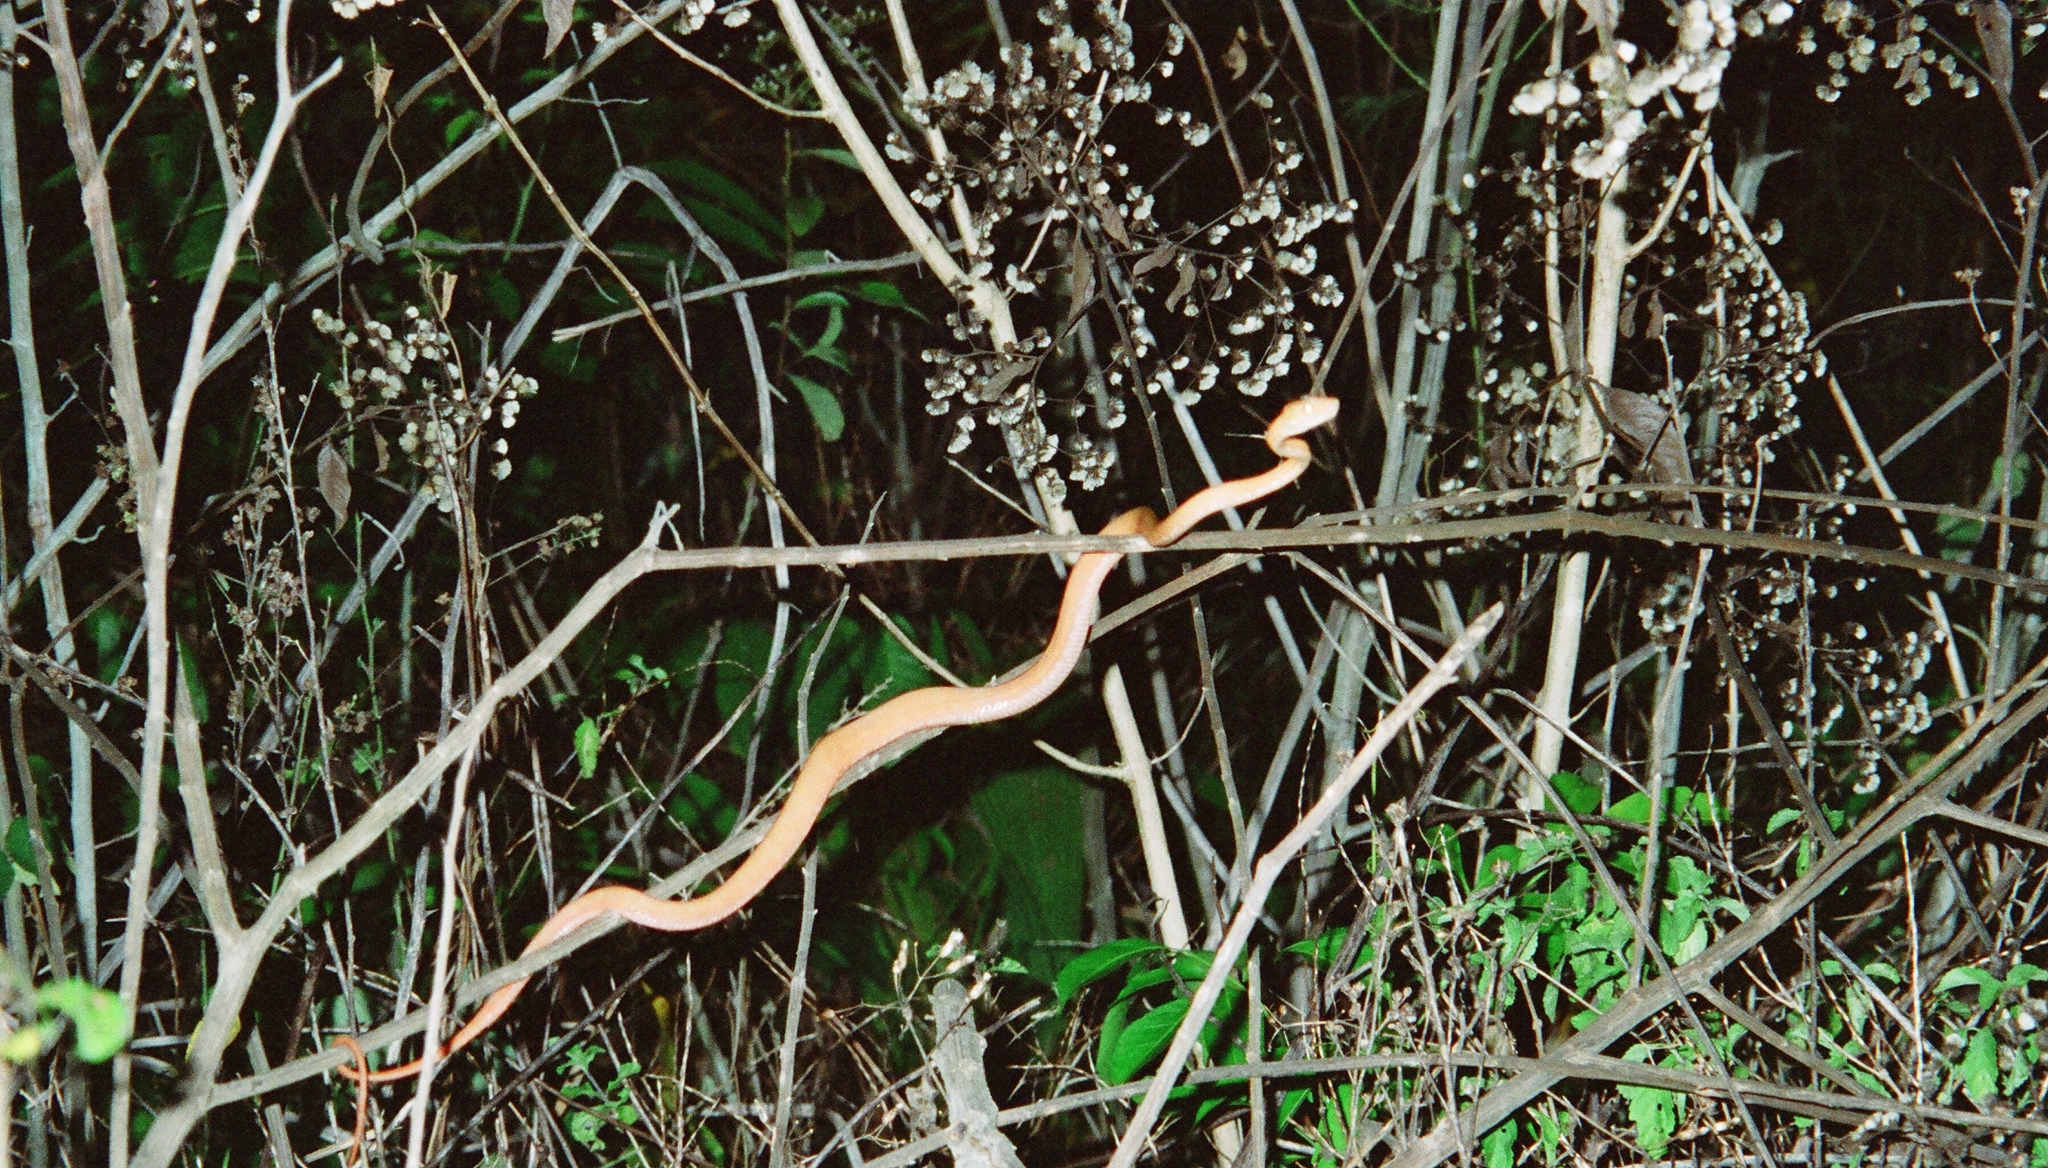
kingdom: Animalia
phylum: Chordata
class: Squamata
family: Boidae
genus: Corallus
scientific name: Corallus hortulana
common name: Garden tree boa
